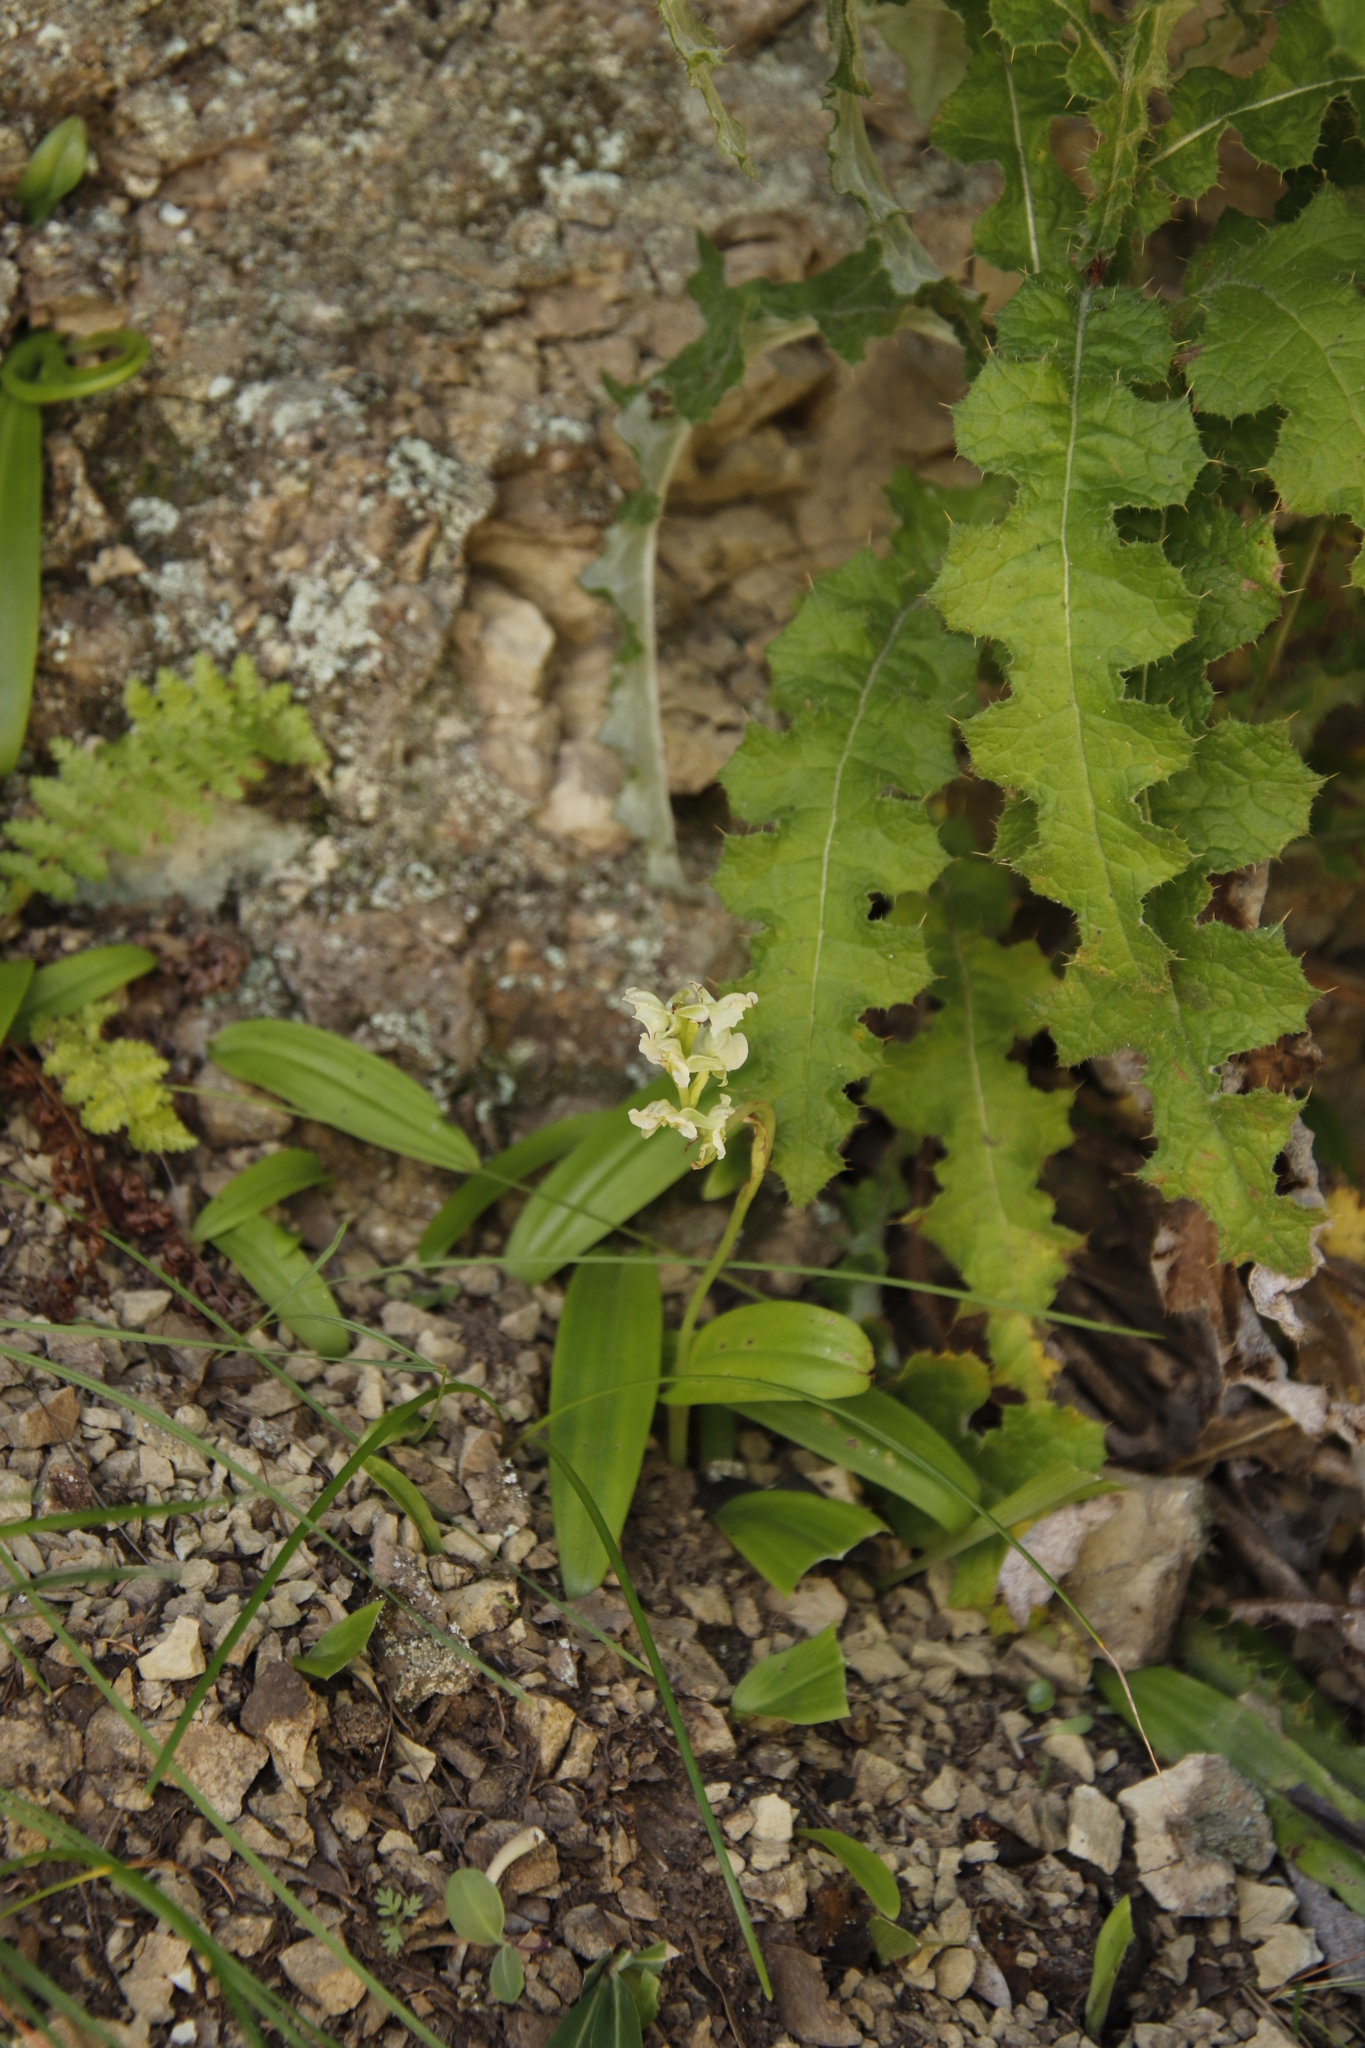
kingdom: Plantae
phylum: Tracheophyta
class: Liliopsida
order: Asparagales
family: Orchidaceae
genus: Pterygodium
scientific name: Pterygodium hastatum
